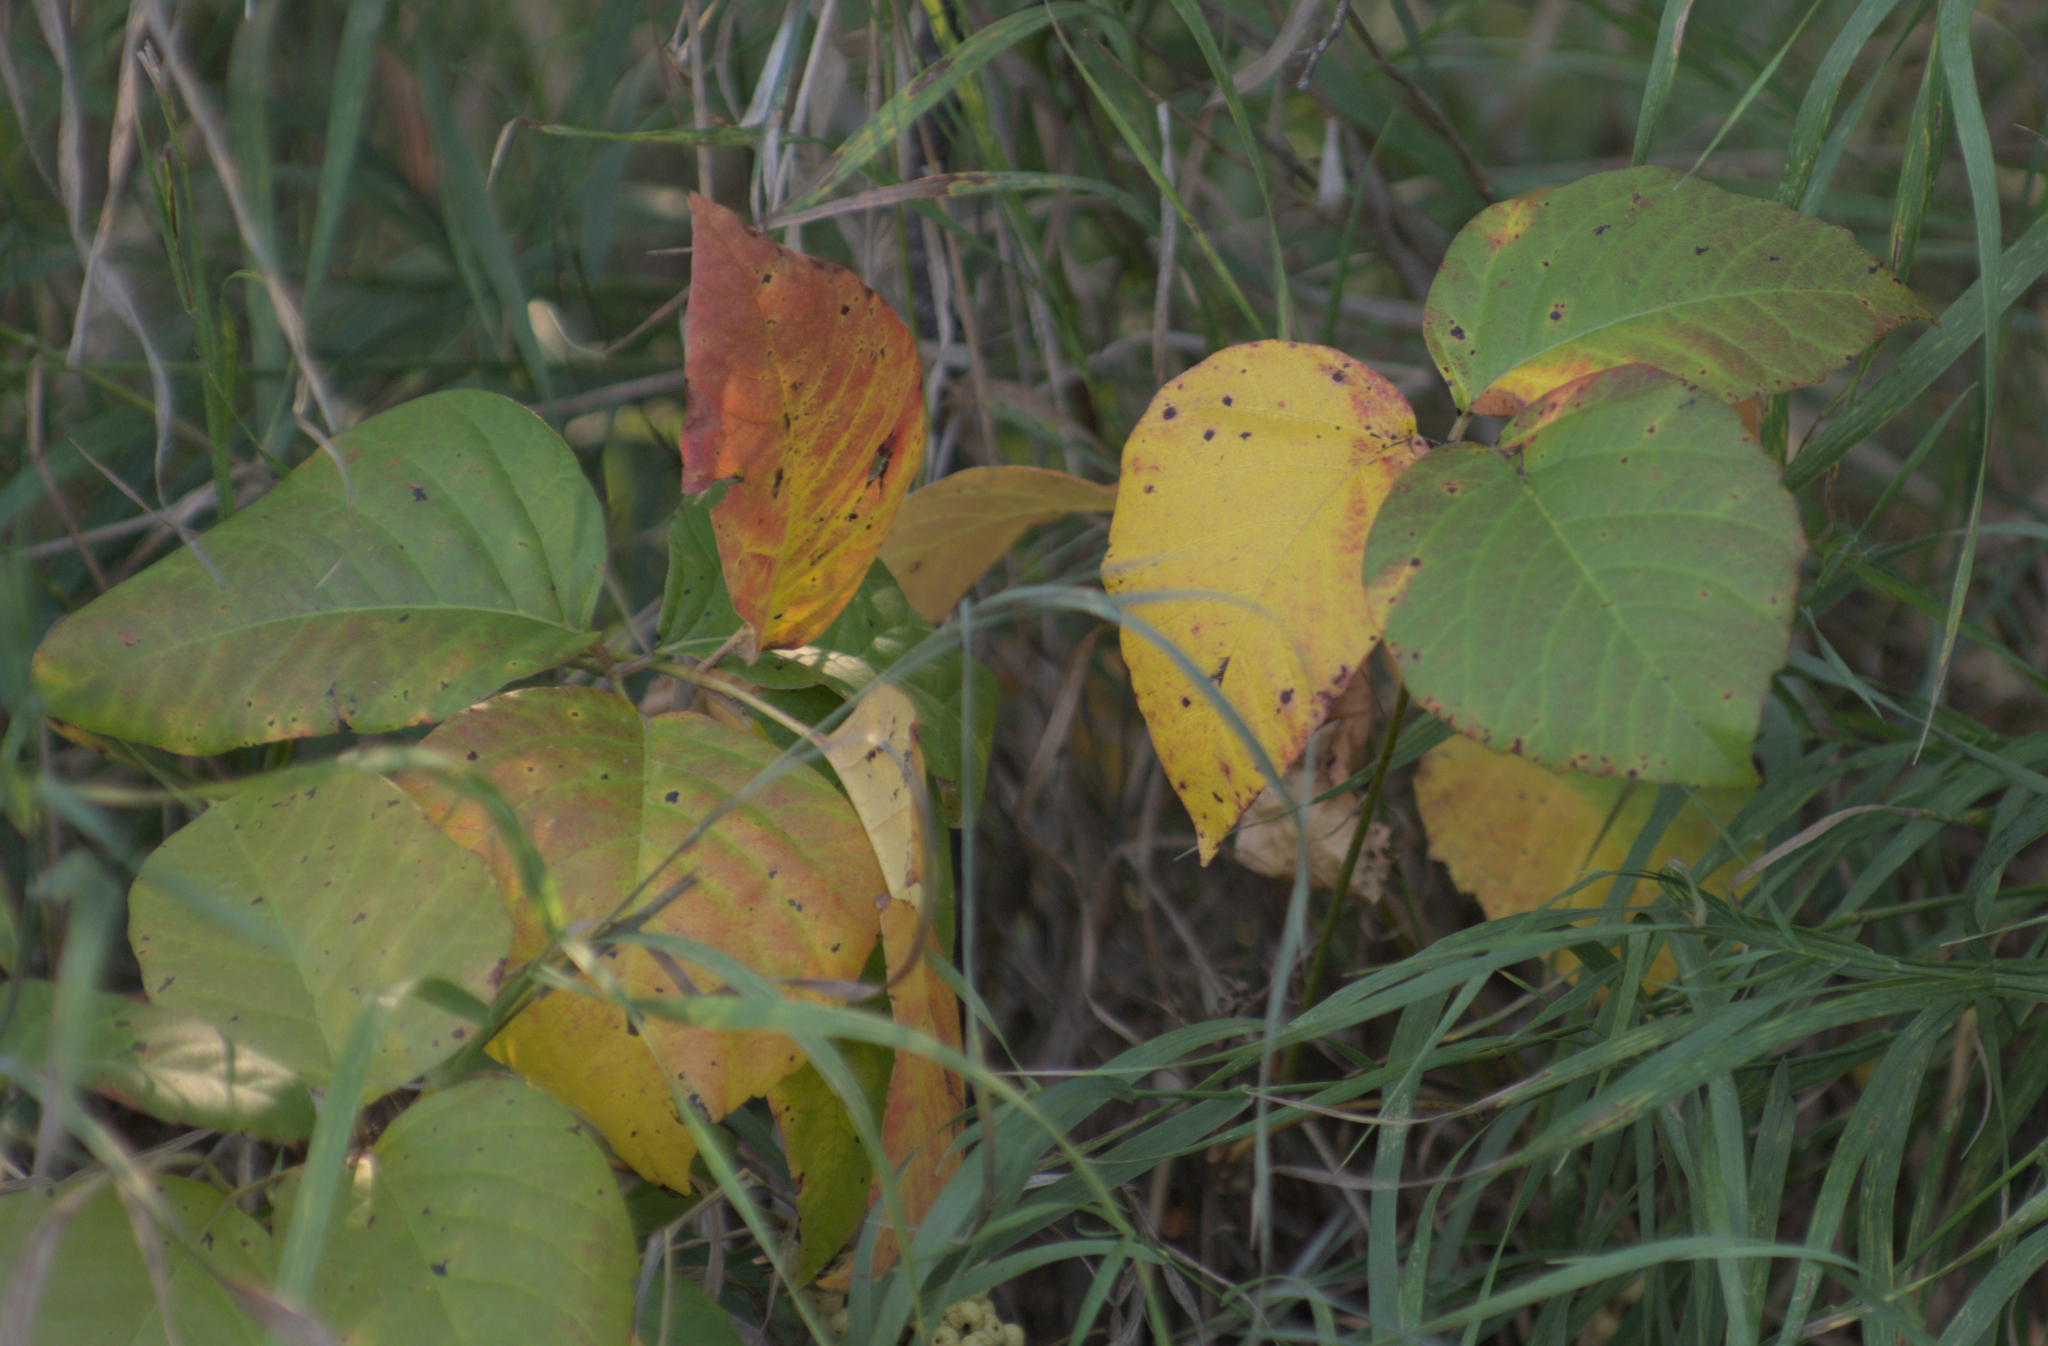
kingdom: Plantae
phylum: Tracheophyta
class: Magnoliopsida
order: Sapindales
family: Anacardiaceae
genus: Toxicodendron
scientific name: Toxicodendron rydbergii
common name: Rydberg's poison-ivy
